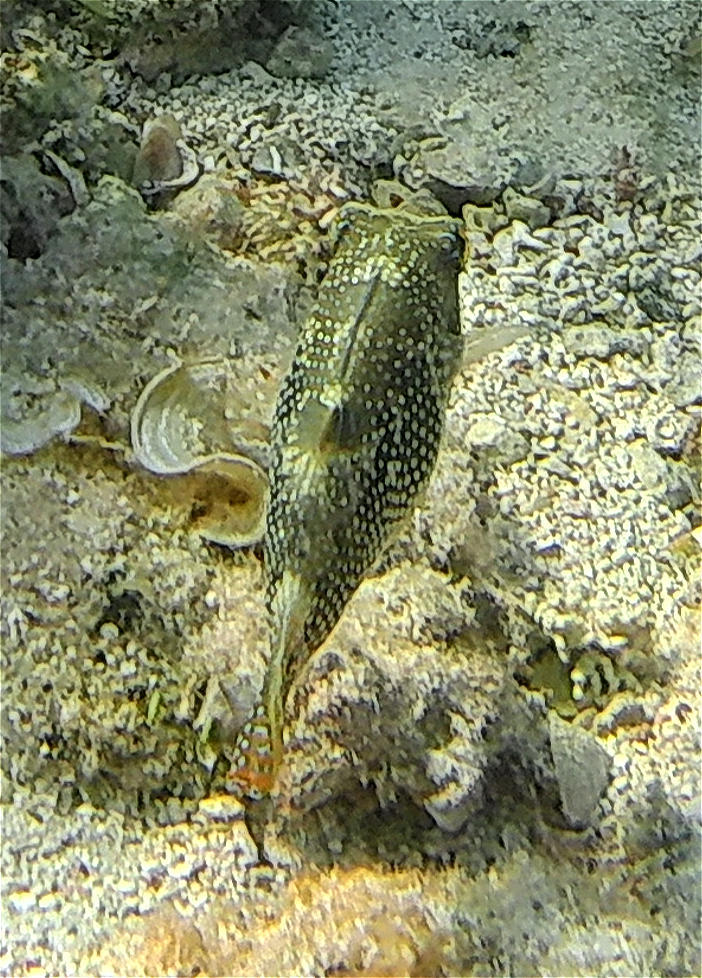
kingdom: Animalia
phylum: Chordata
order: Tetraodontiformes
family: Tetraodontidae
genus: Canthigaster
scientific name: Canthigaster margaritata
